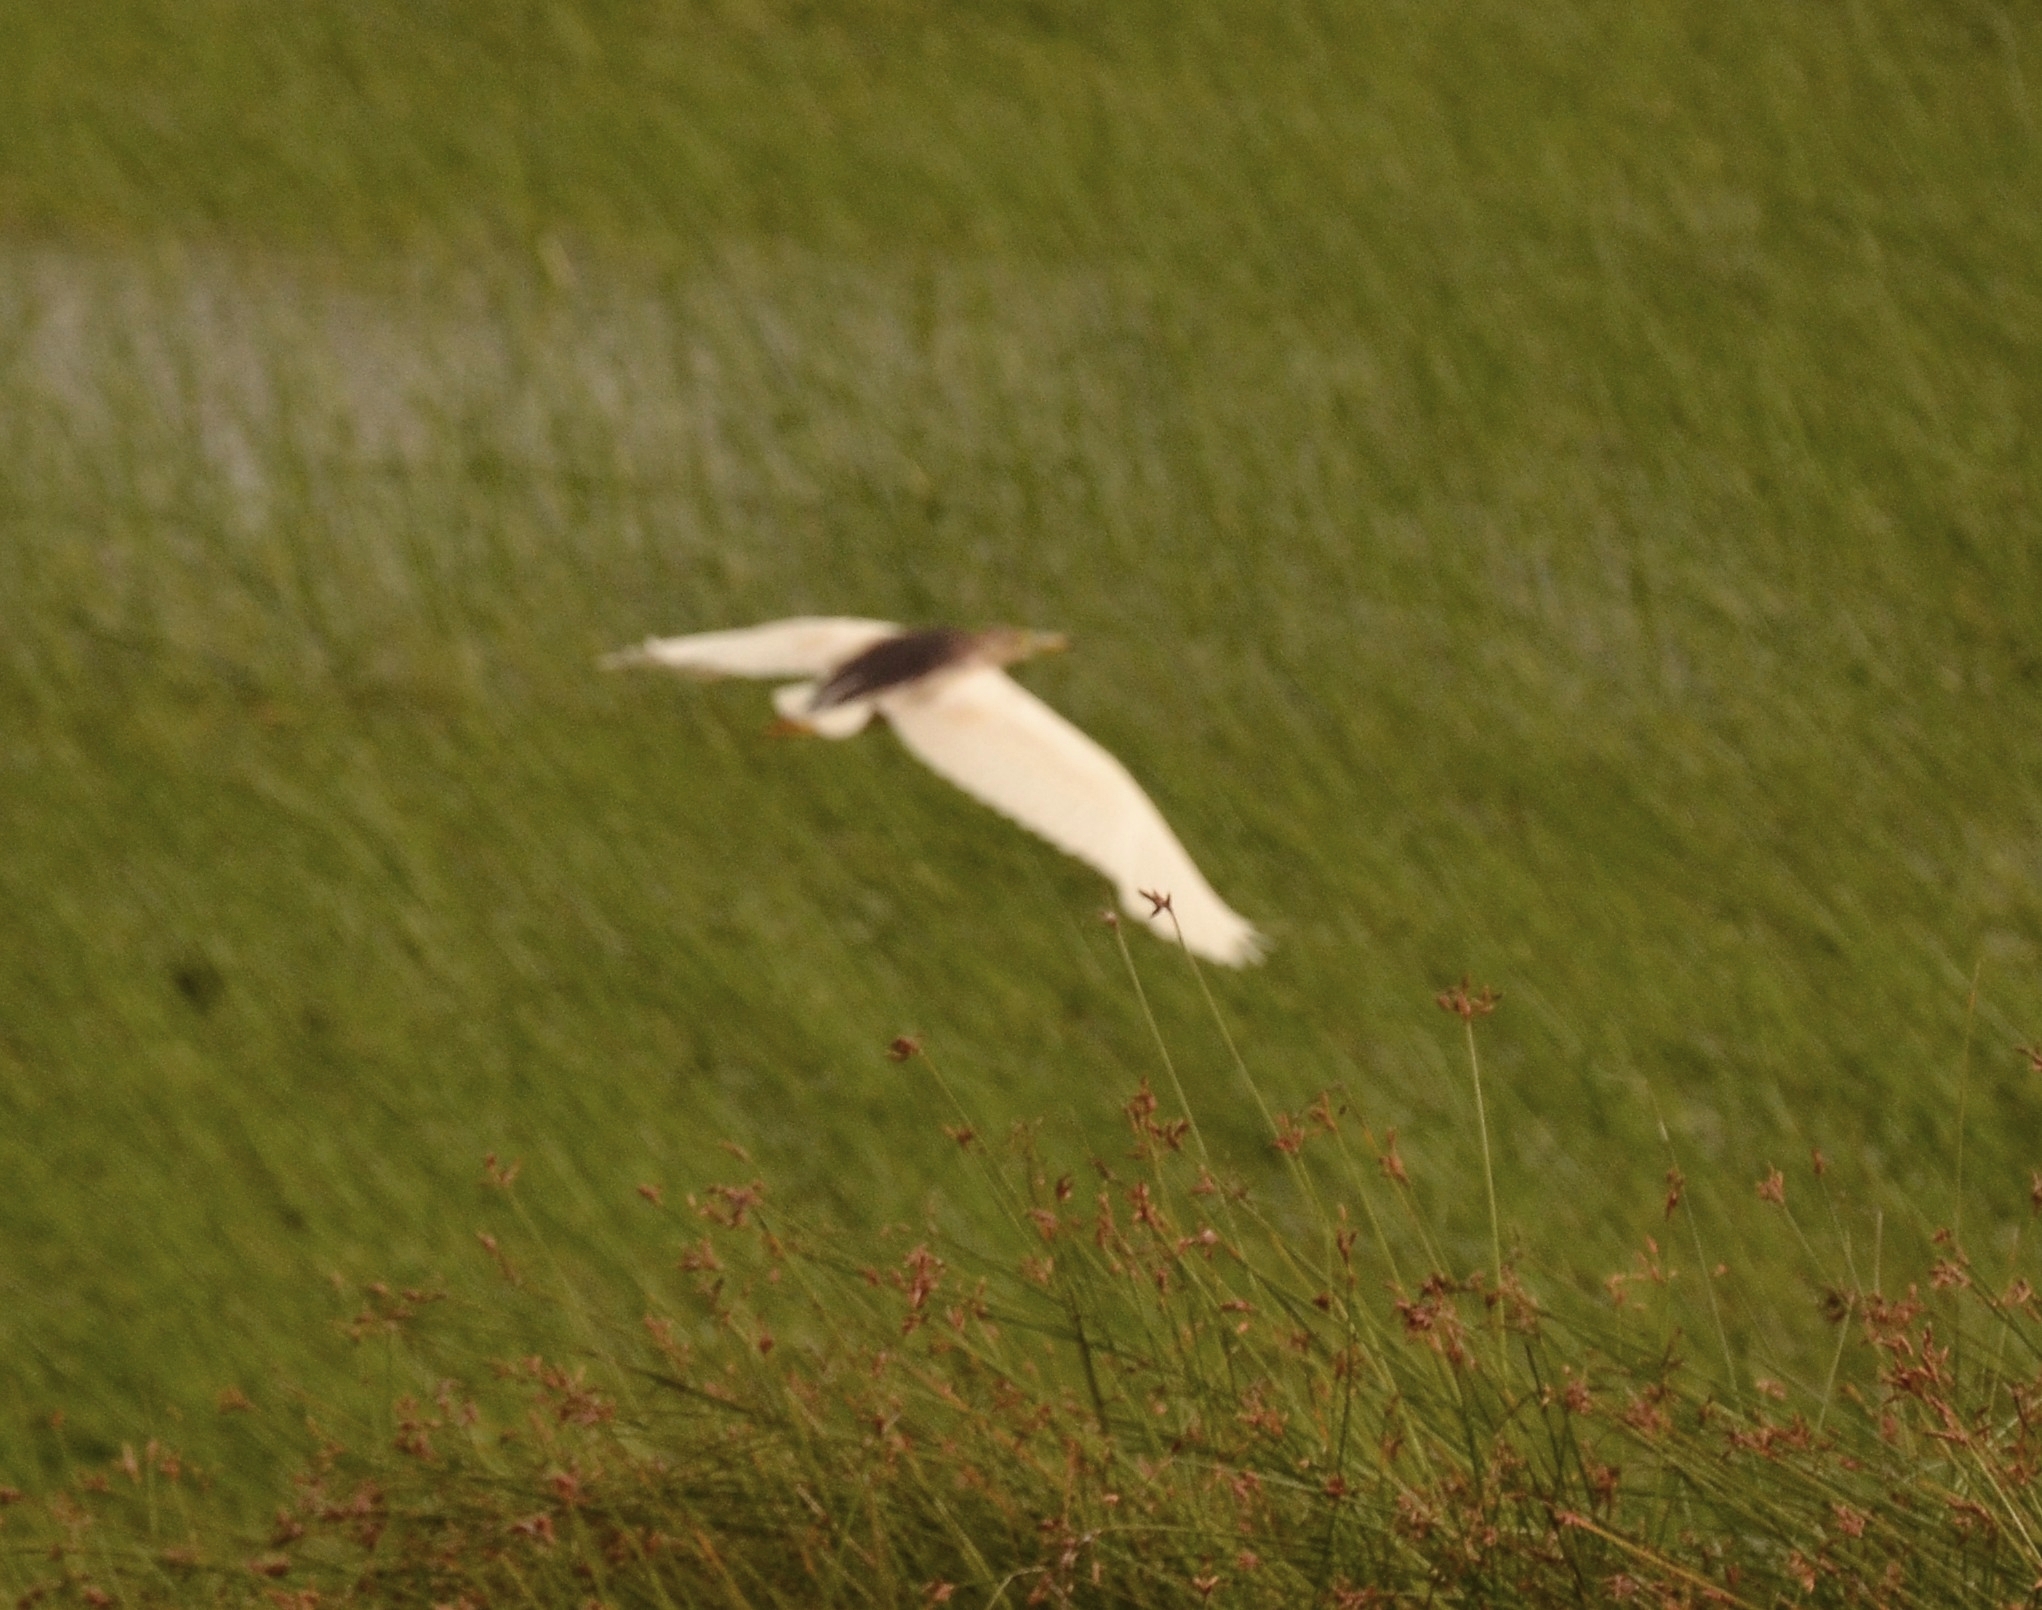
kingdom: Animalia
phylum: Chordata
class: Aves
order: Pelecaniformes
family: Ardeidae
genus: Ardeola
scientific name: Ardeola grayii
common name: Indian pond heron
